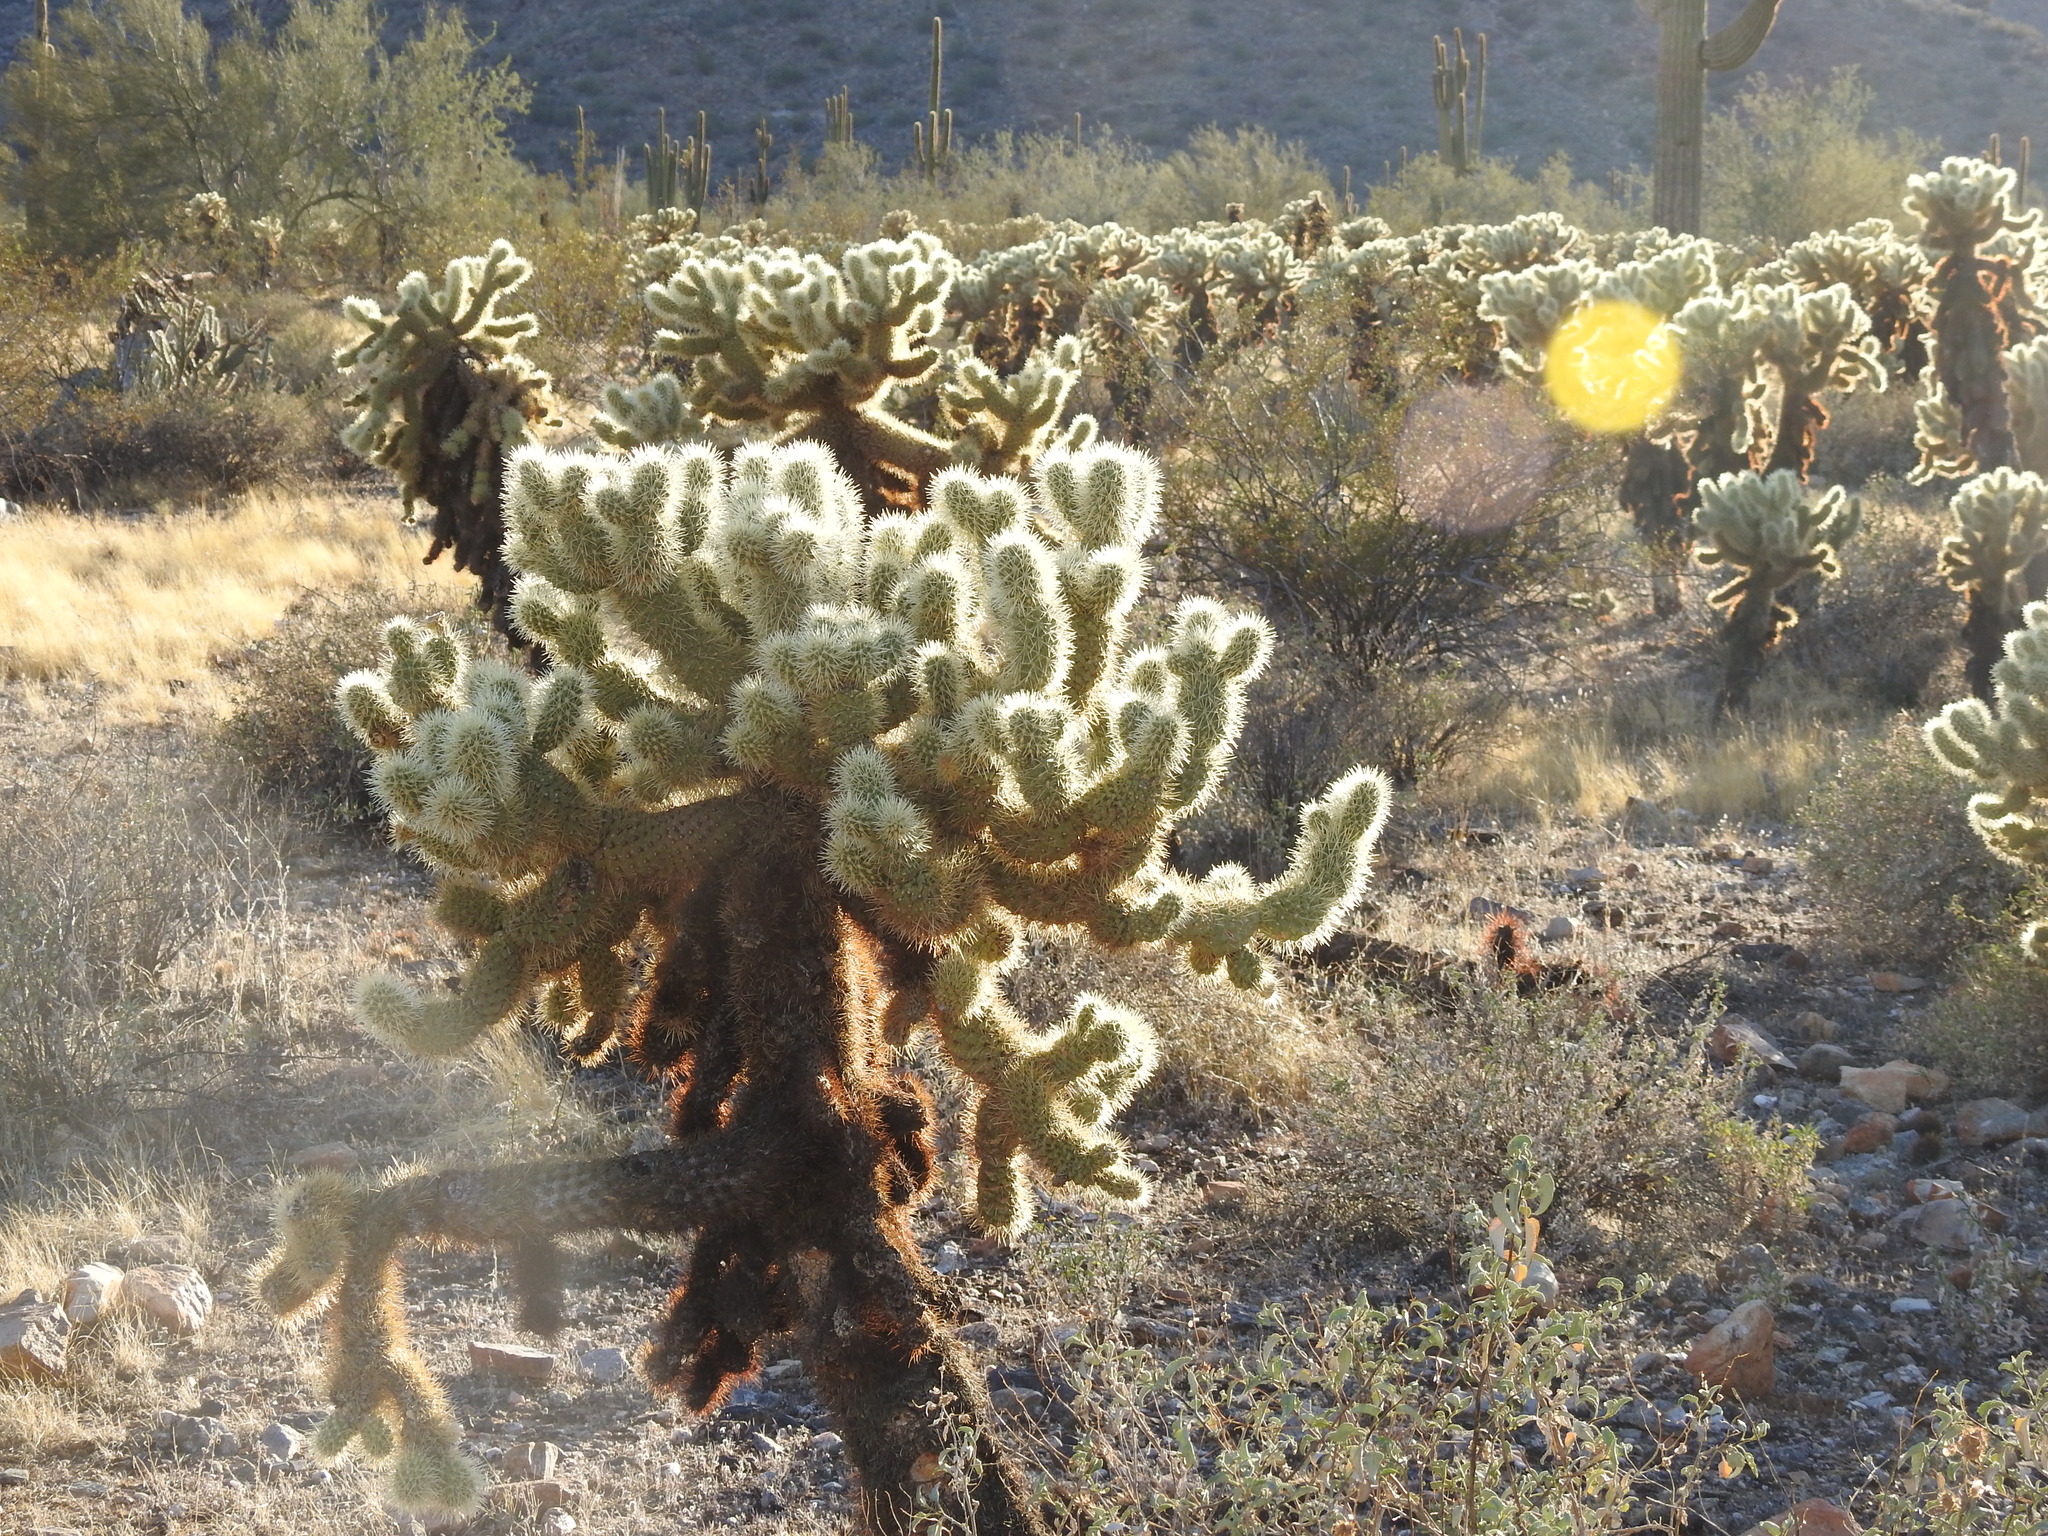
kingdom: Plantae
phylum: Tracheophyta
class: Magnoliopsida
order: Caryophyllales
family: Cactaceae
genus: Cylindropuntia
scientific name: Cylindropuntia fosbergii
